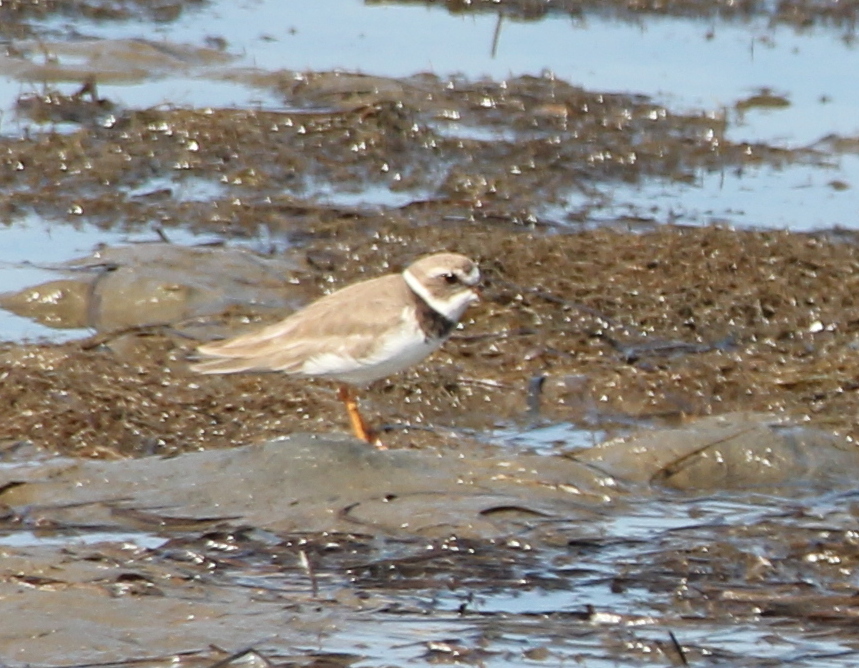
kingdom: Animalia
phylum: Chordata
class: Aves
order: Charadriiformes
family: Charadriidae
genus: Charadrius
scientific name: Charadrius semipalmatus
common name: Semipalmated plover
